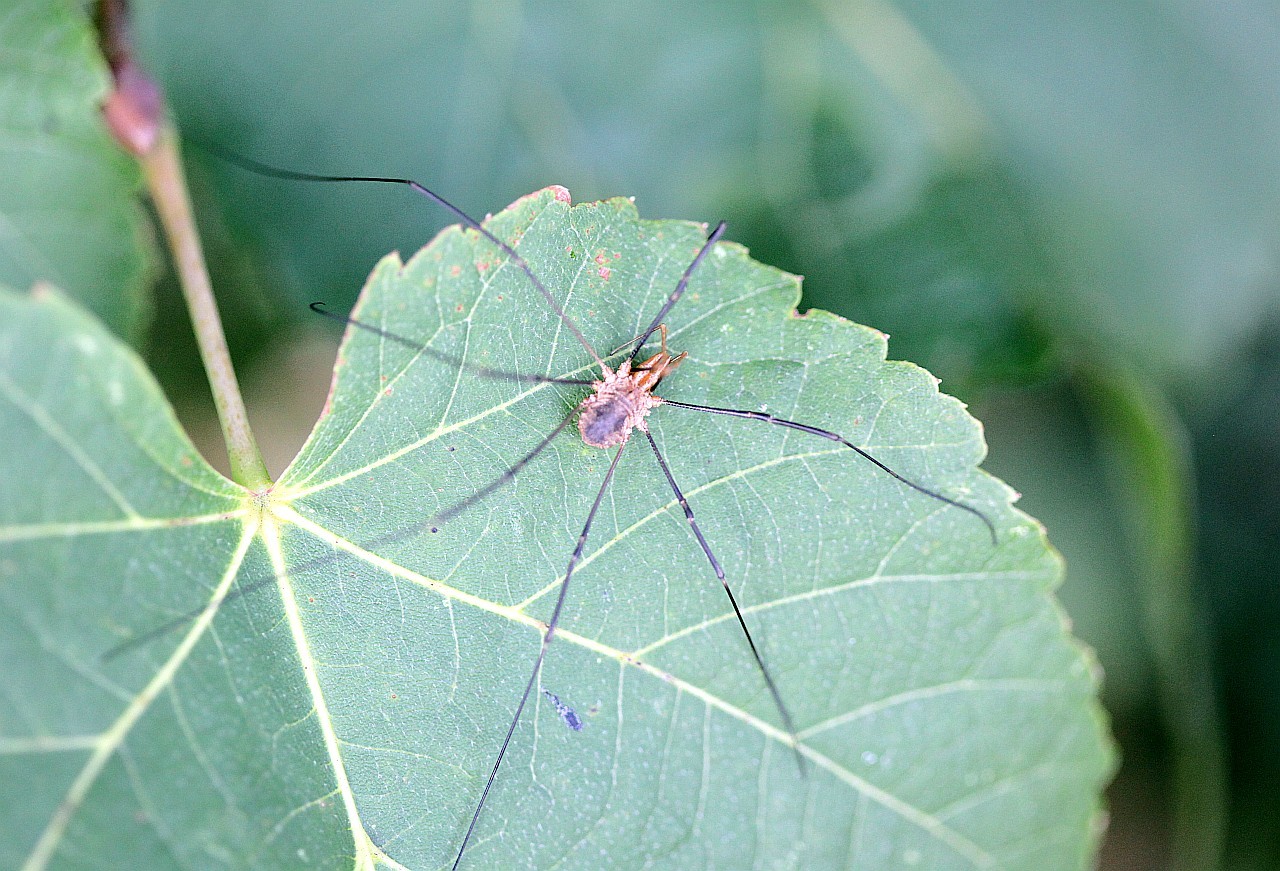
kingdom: Animalia
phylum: Arthropoda
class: Arachnida
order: Opiliones
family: Phalangiidae
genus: Phalangium
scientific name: Phalangium opilio
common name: Daddy longleg
